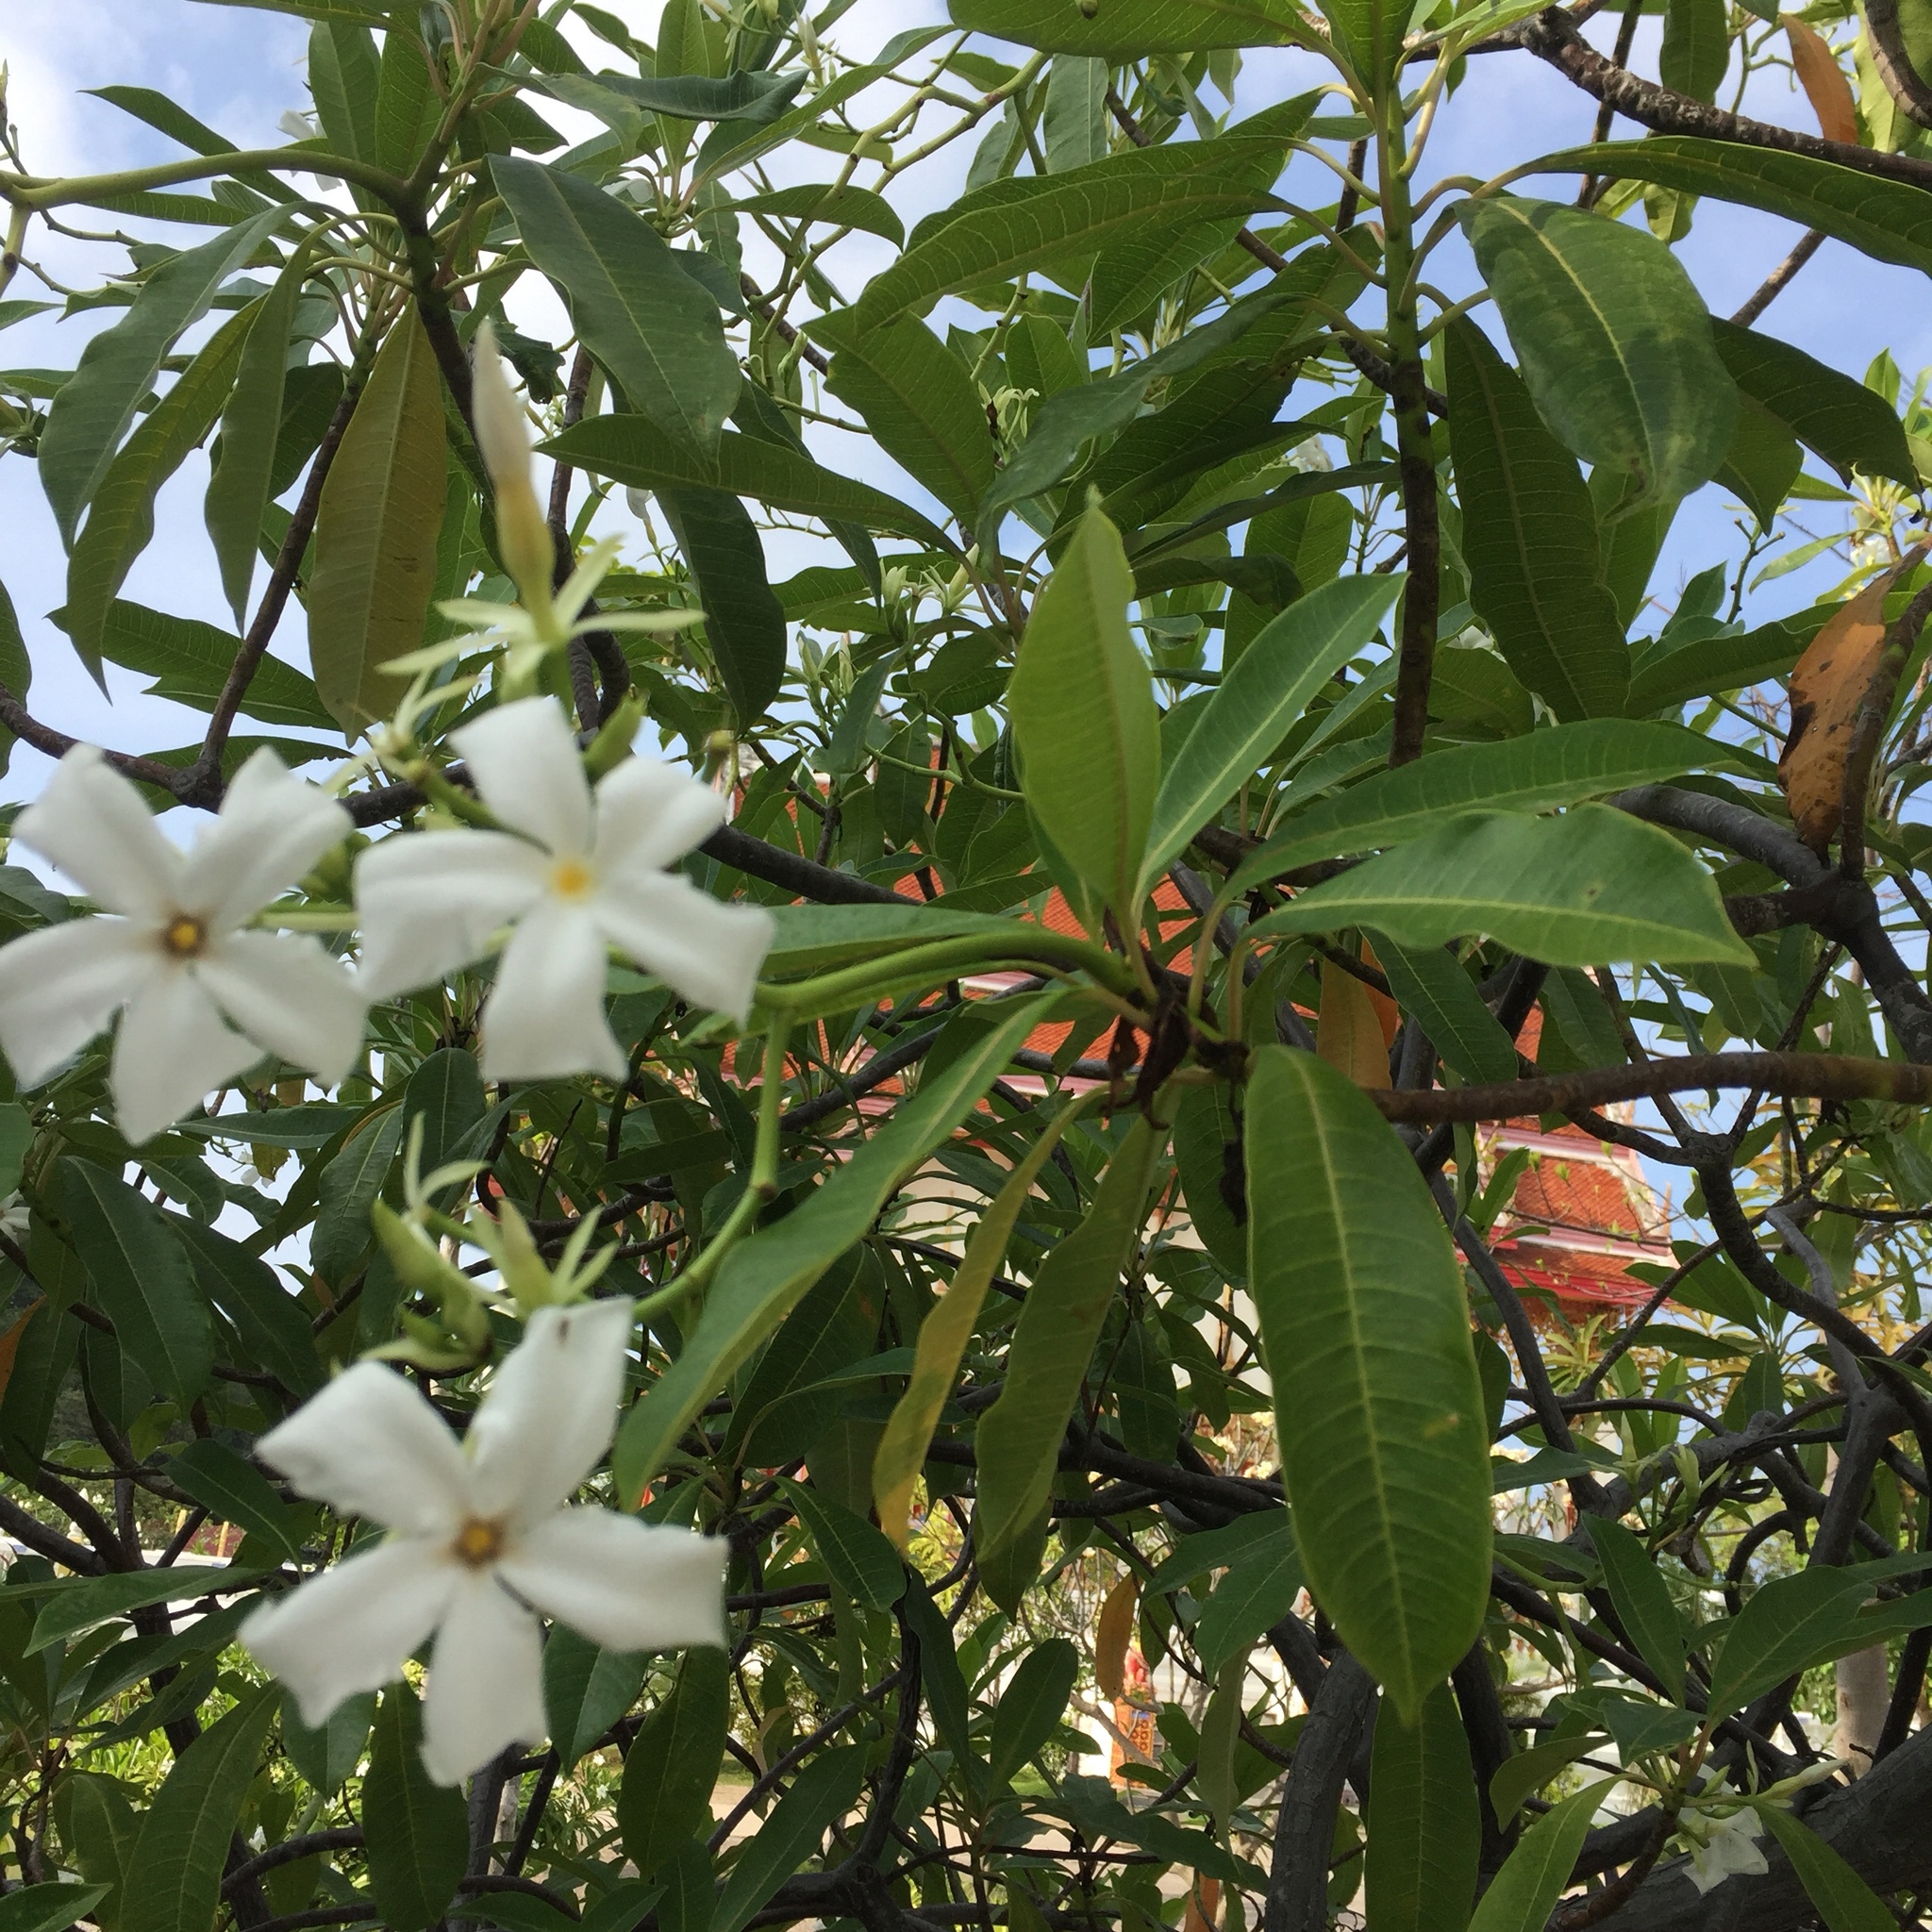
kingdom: Plantae
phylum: Tracheophyta
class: Magnoliopsida
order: Gentianales
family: Apocynaceae
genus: Cerbera
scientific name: Cerbera odollam
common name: Pong-pong
